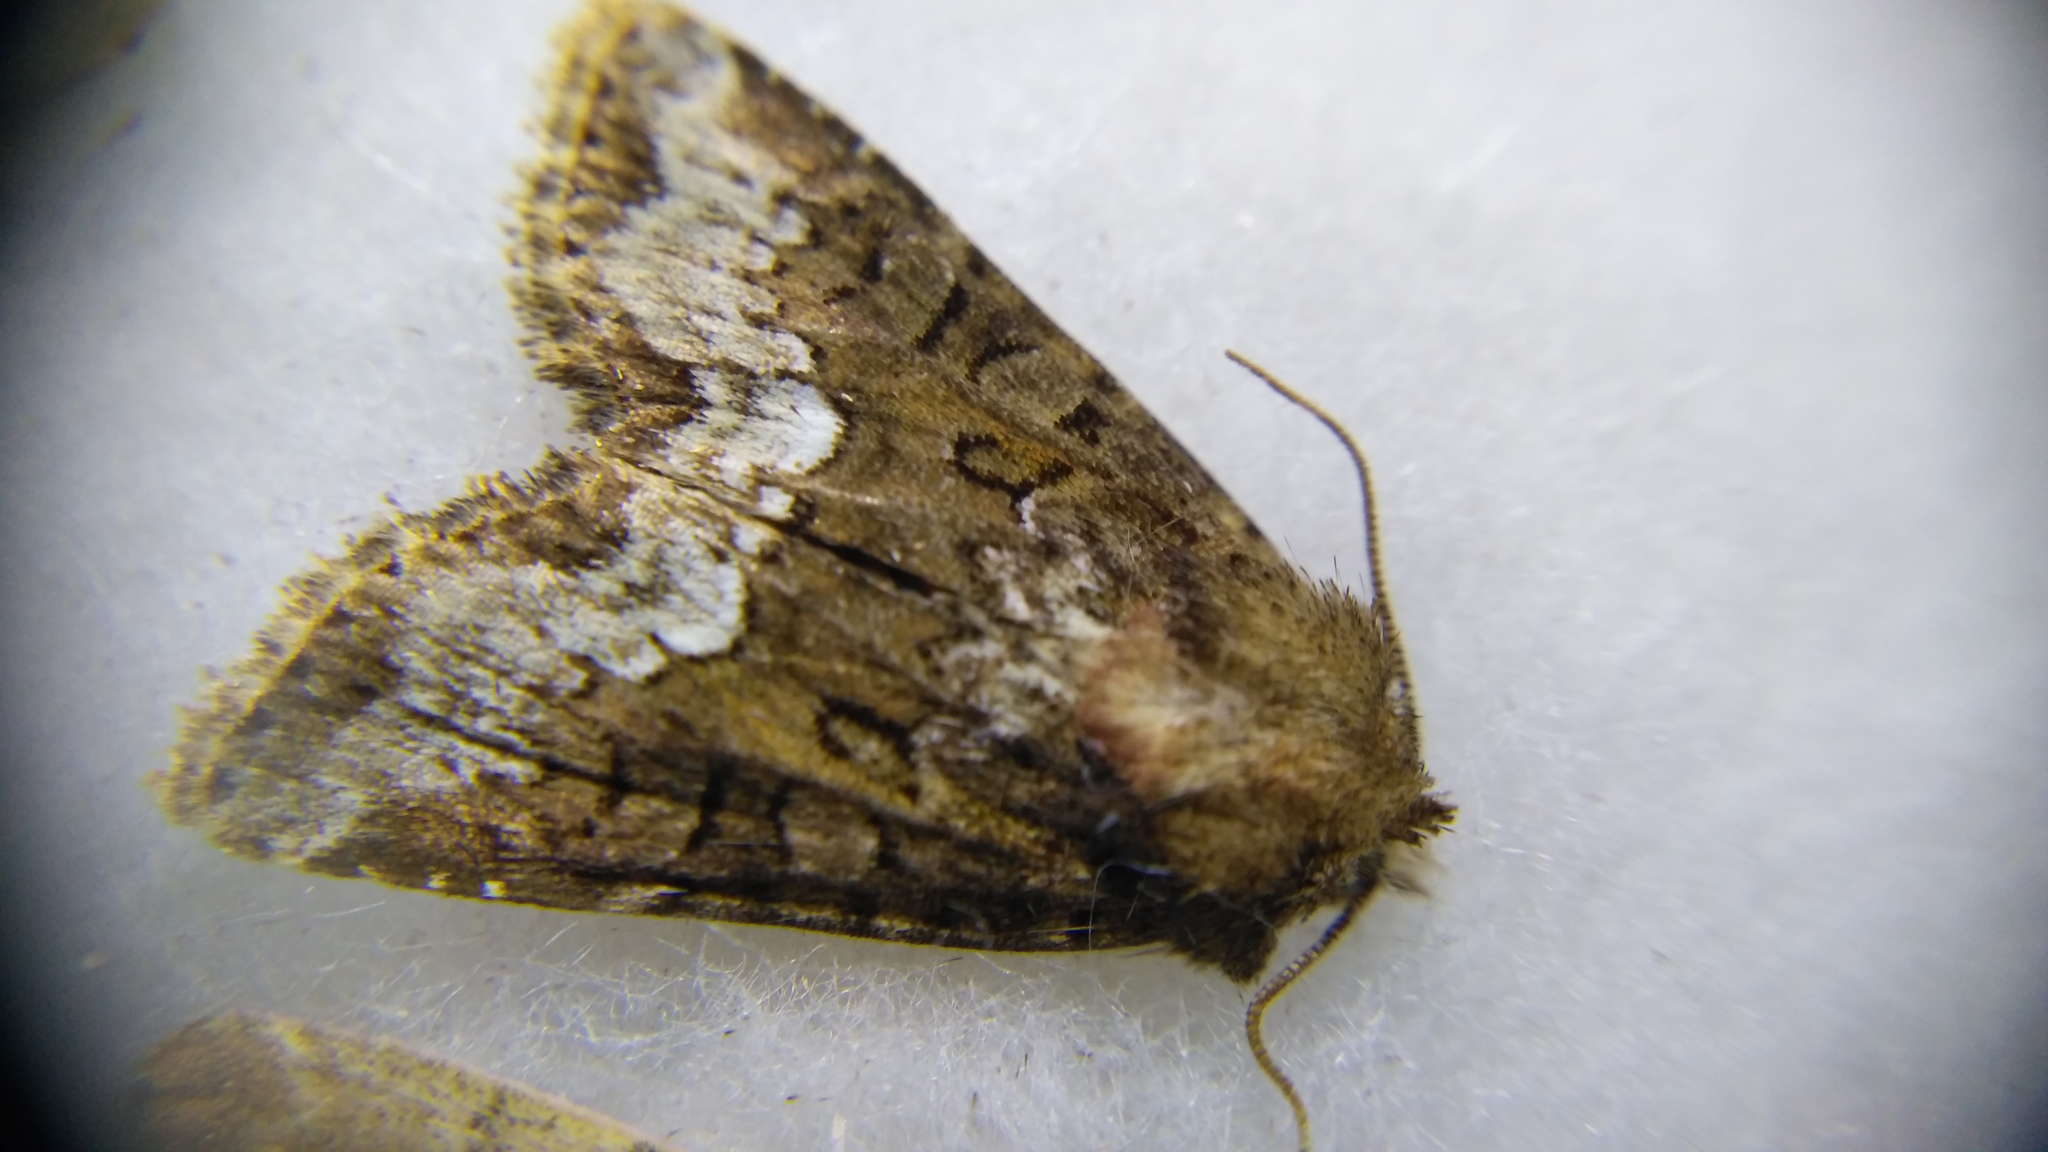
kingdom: Animalia
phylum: Arthropoda
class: Insecta
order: Lepidoptera
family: Noctuidae
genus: Oligia
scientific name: Oligia strigilis
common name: Marbled minor
